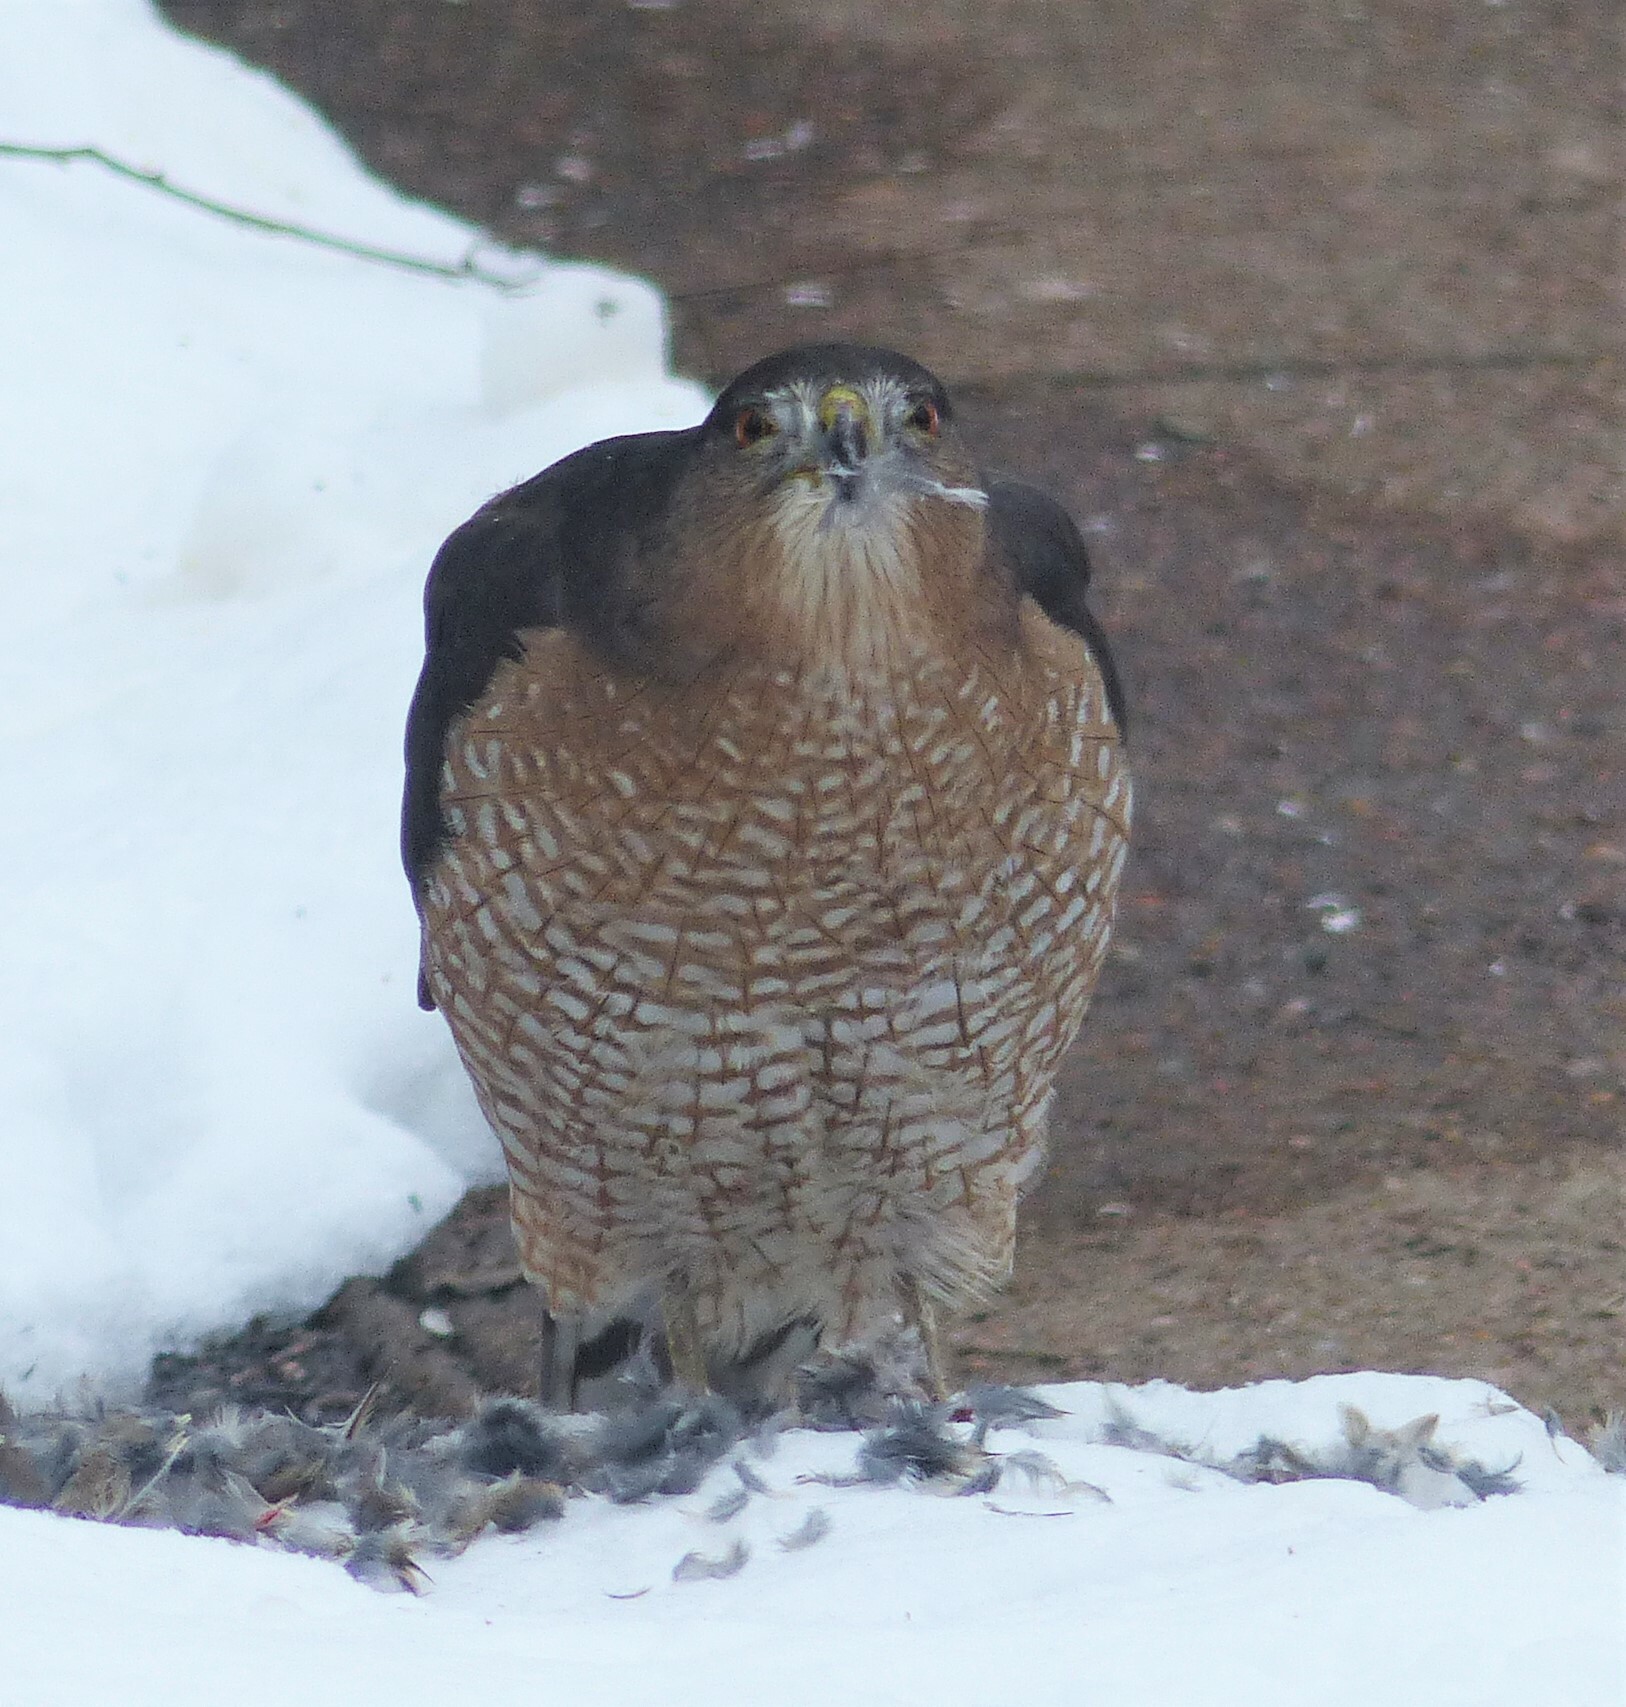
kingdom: Animalia
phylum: Chordata
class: Aves
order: Accipitriformes
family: Accipitridae
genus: Accipiter
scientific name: Accipiter cooperii
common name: Cooper's hawk
